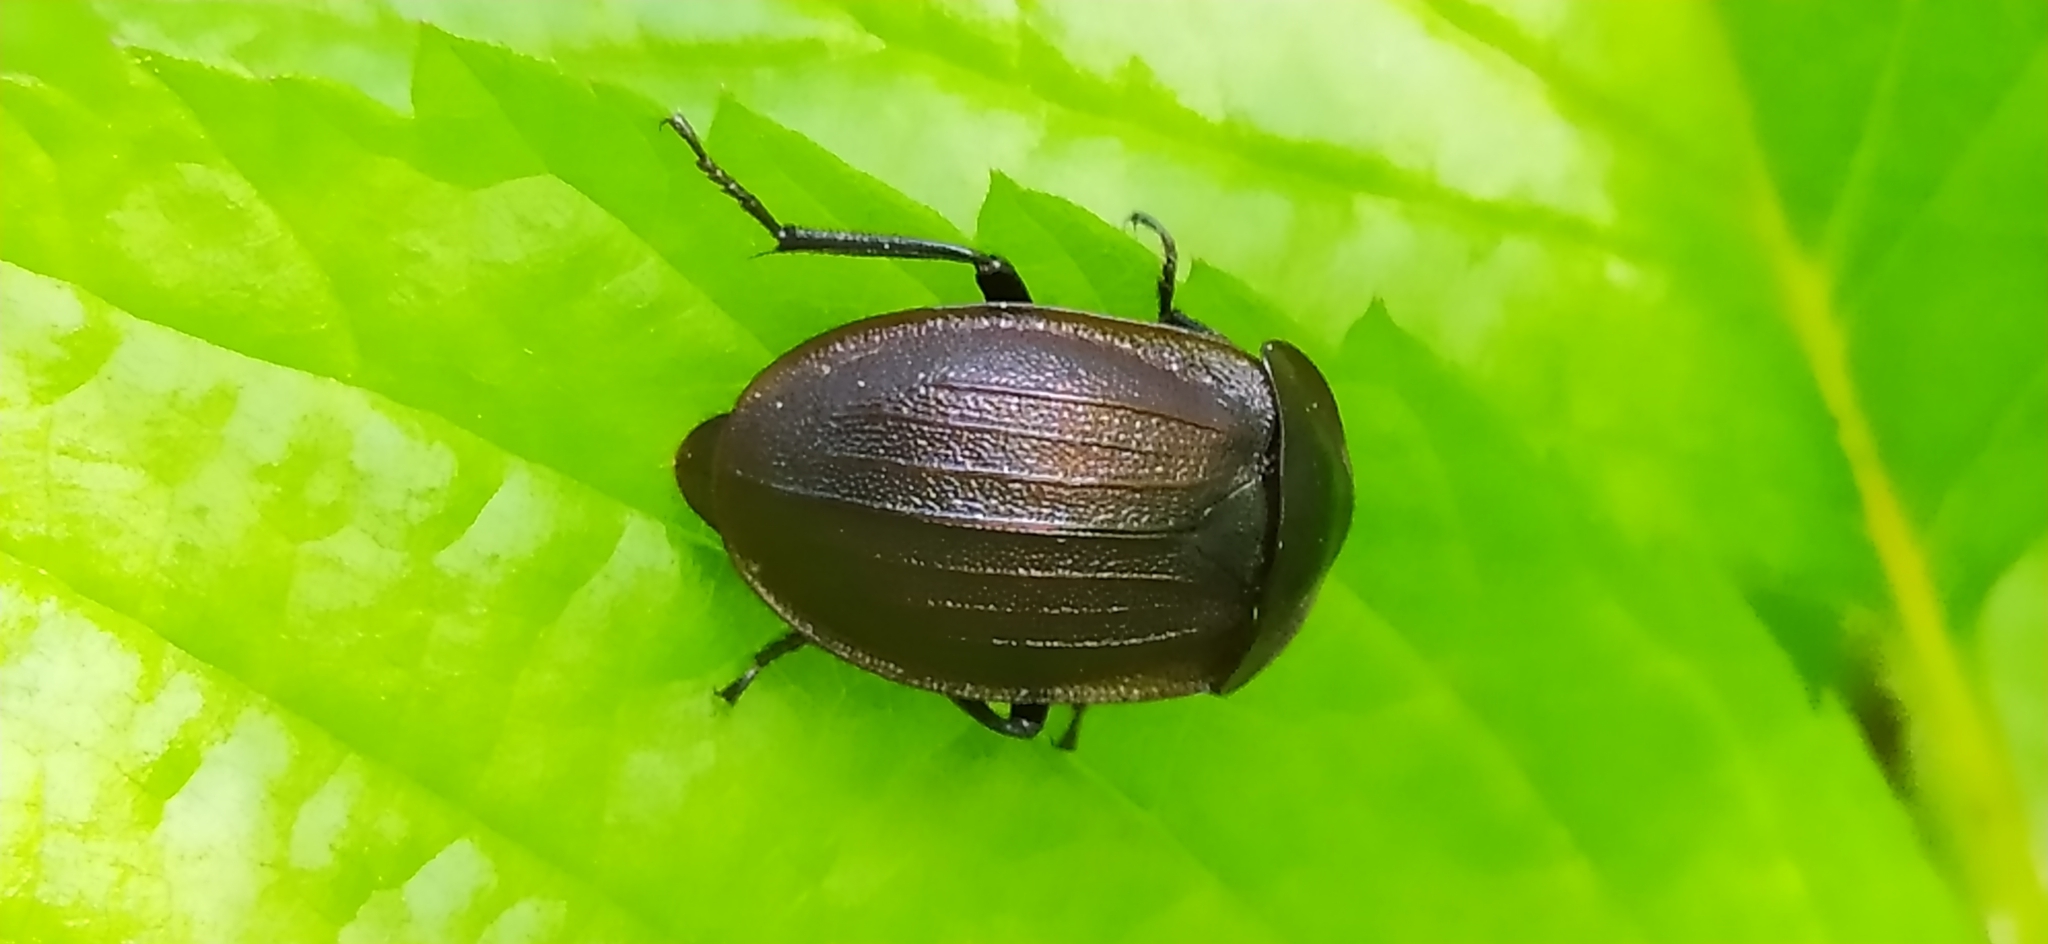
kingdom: Animalia
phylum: Arthropoda
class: Insecta
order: Coleoptera
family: Staphylinidae
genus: Silpha
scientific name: Silpha atrata
